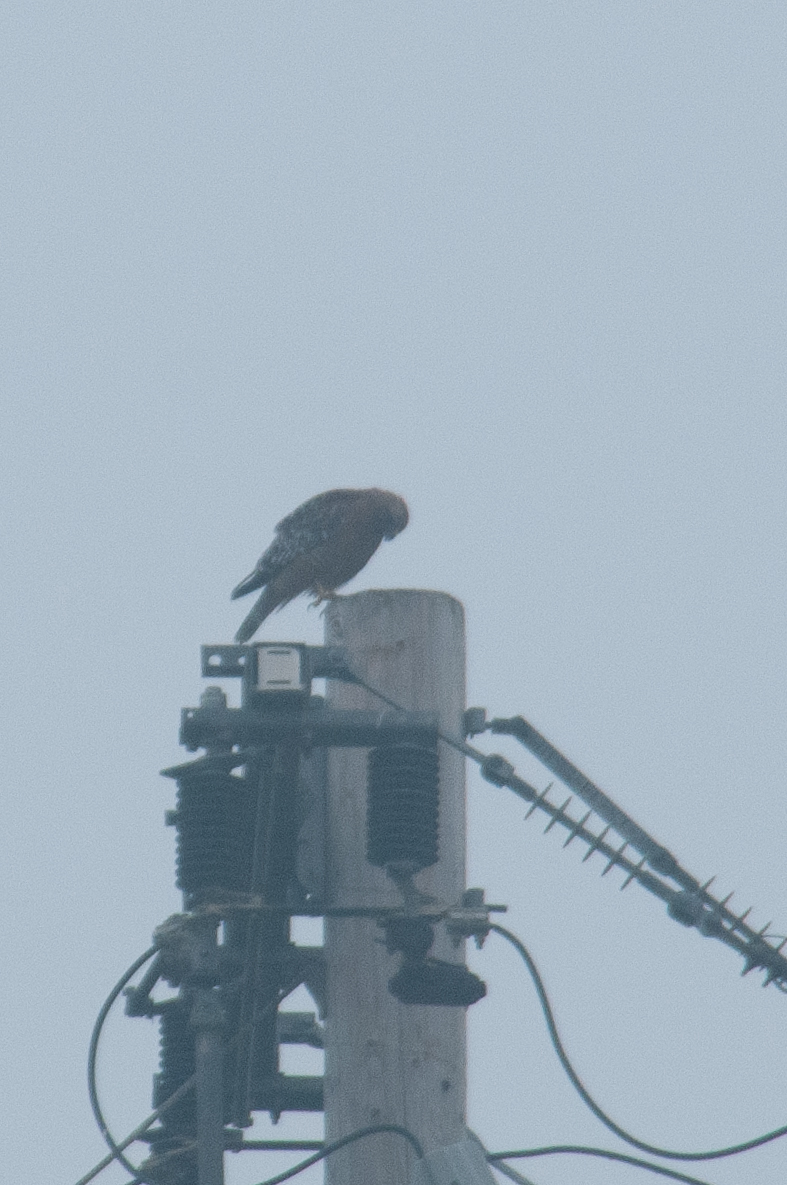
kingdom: Animalia
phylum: Chordata
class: Aves
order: Accipitriformes
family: Accipitridae
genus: Buteo
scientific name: Buteo lineatus
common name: Red-shouldered hawk
